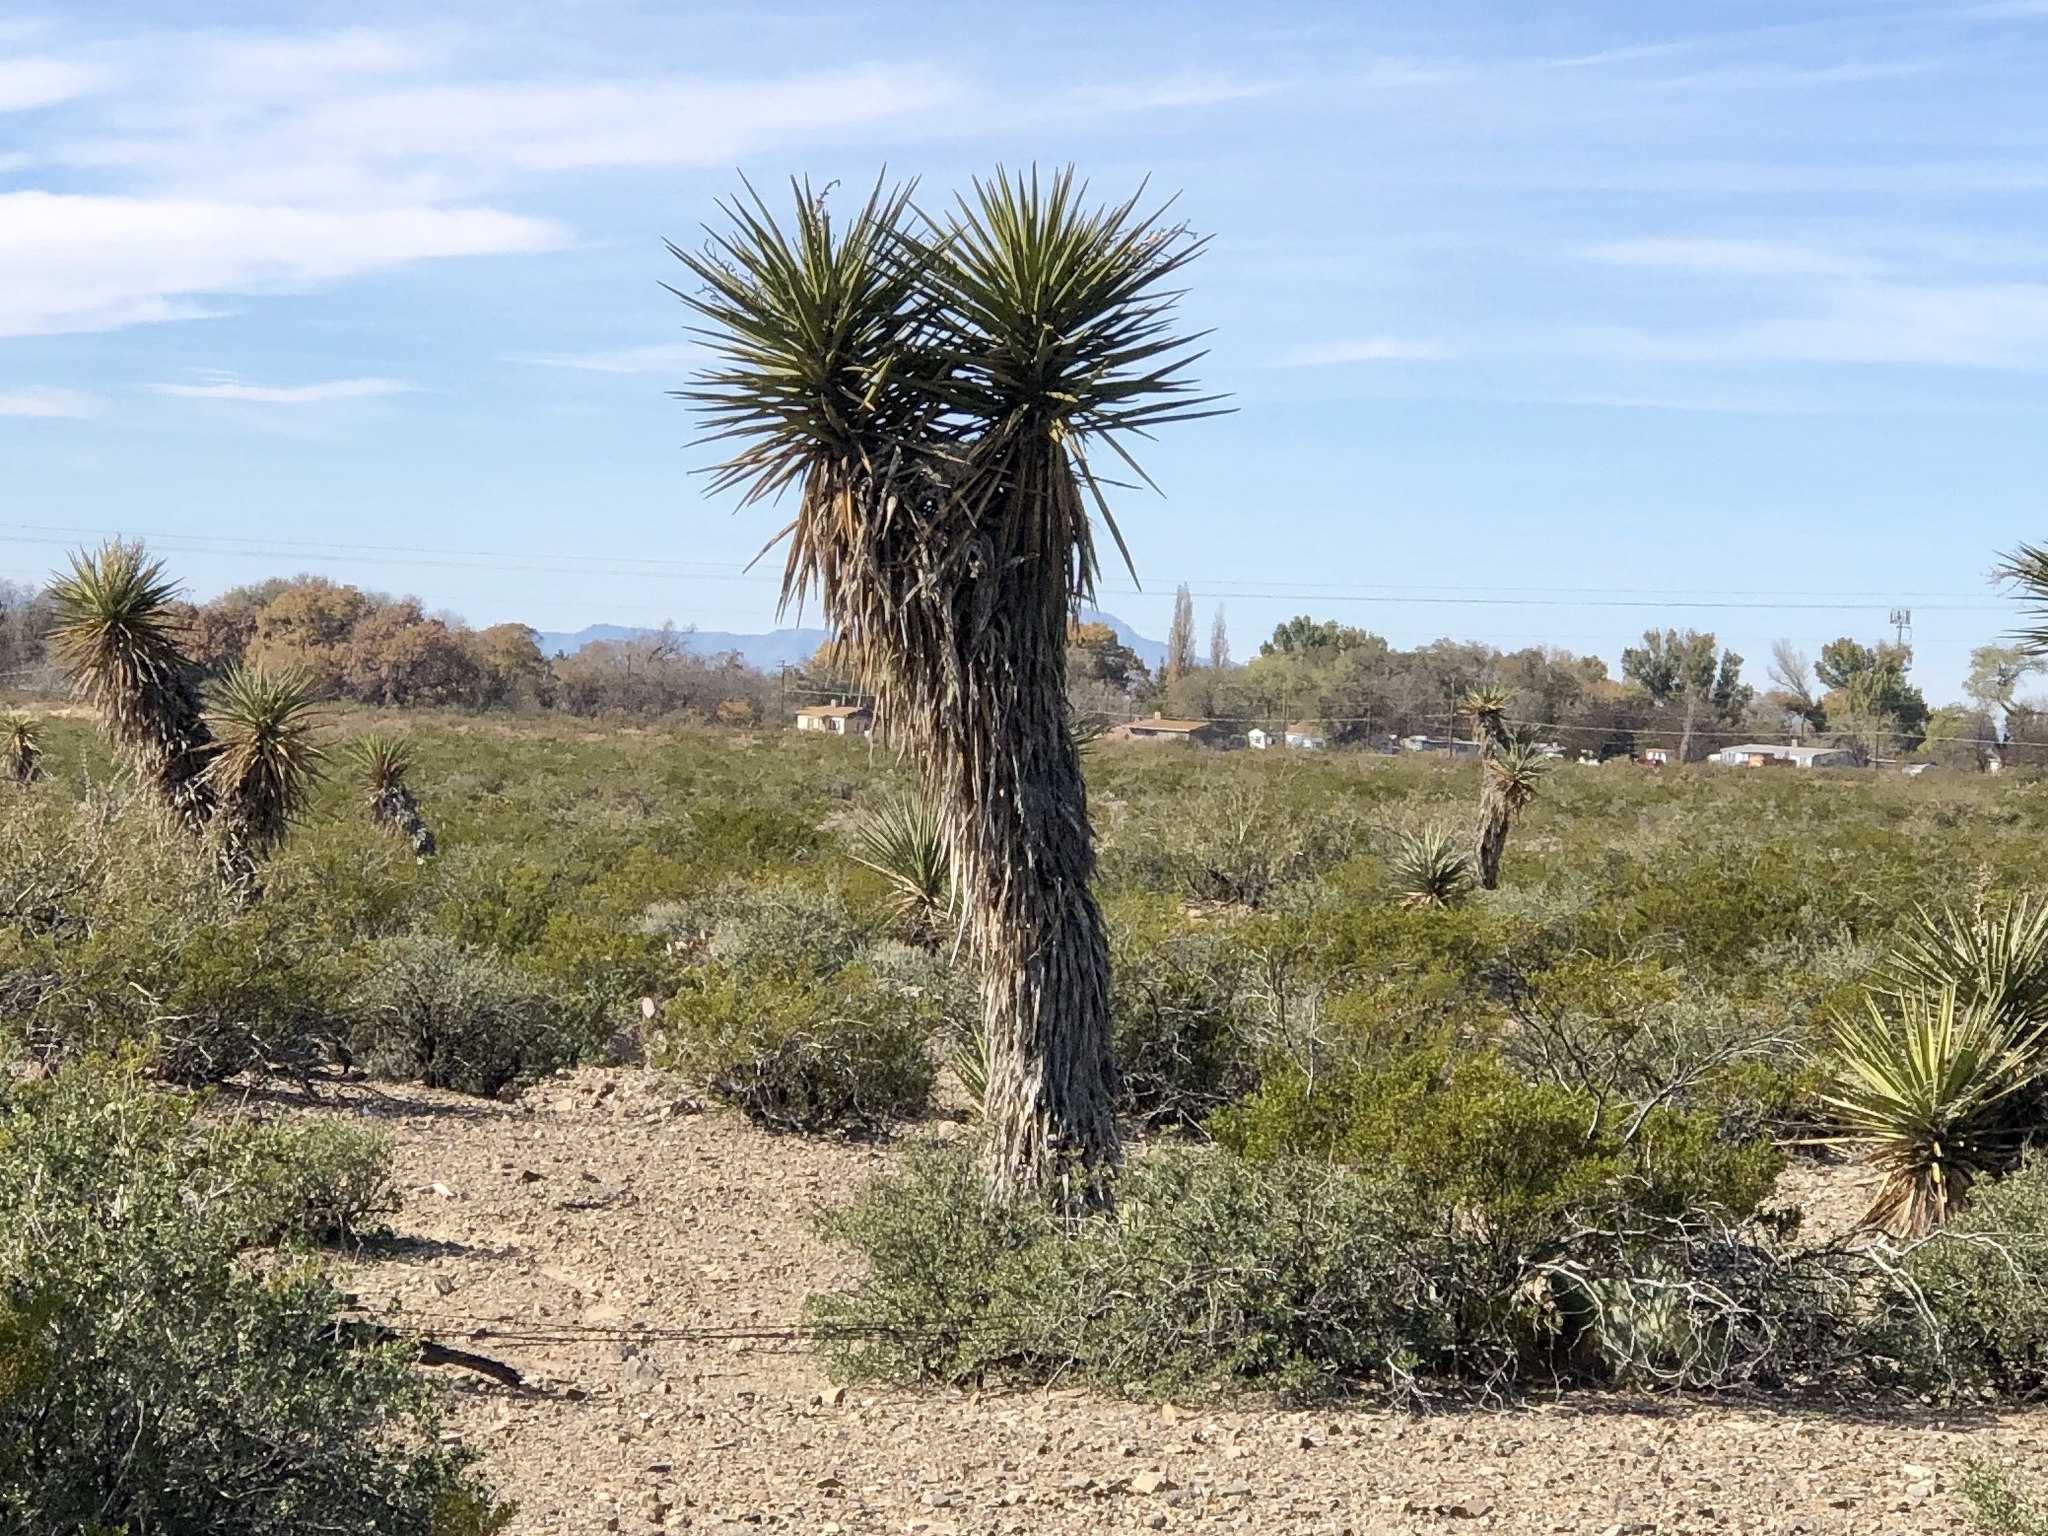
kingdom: Plantae
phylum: Tracheophyta
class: Liliopsida
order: Asparagales
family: Asparagaceae
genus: Yucca
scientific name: Yucca elata
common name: Palmella
